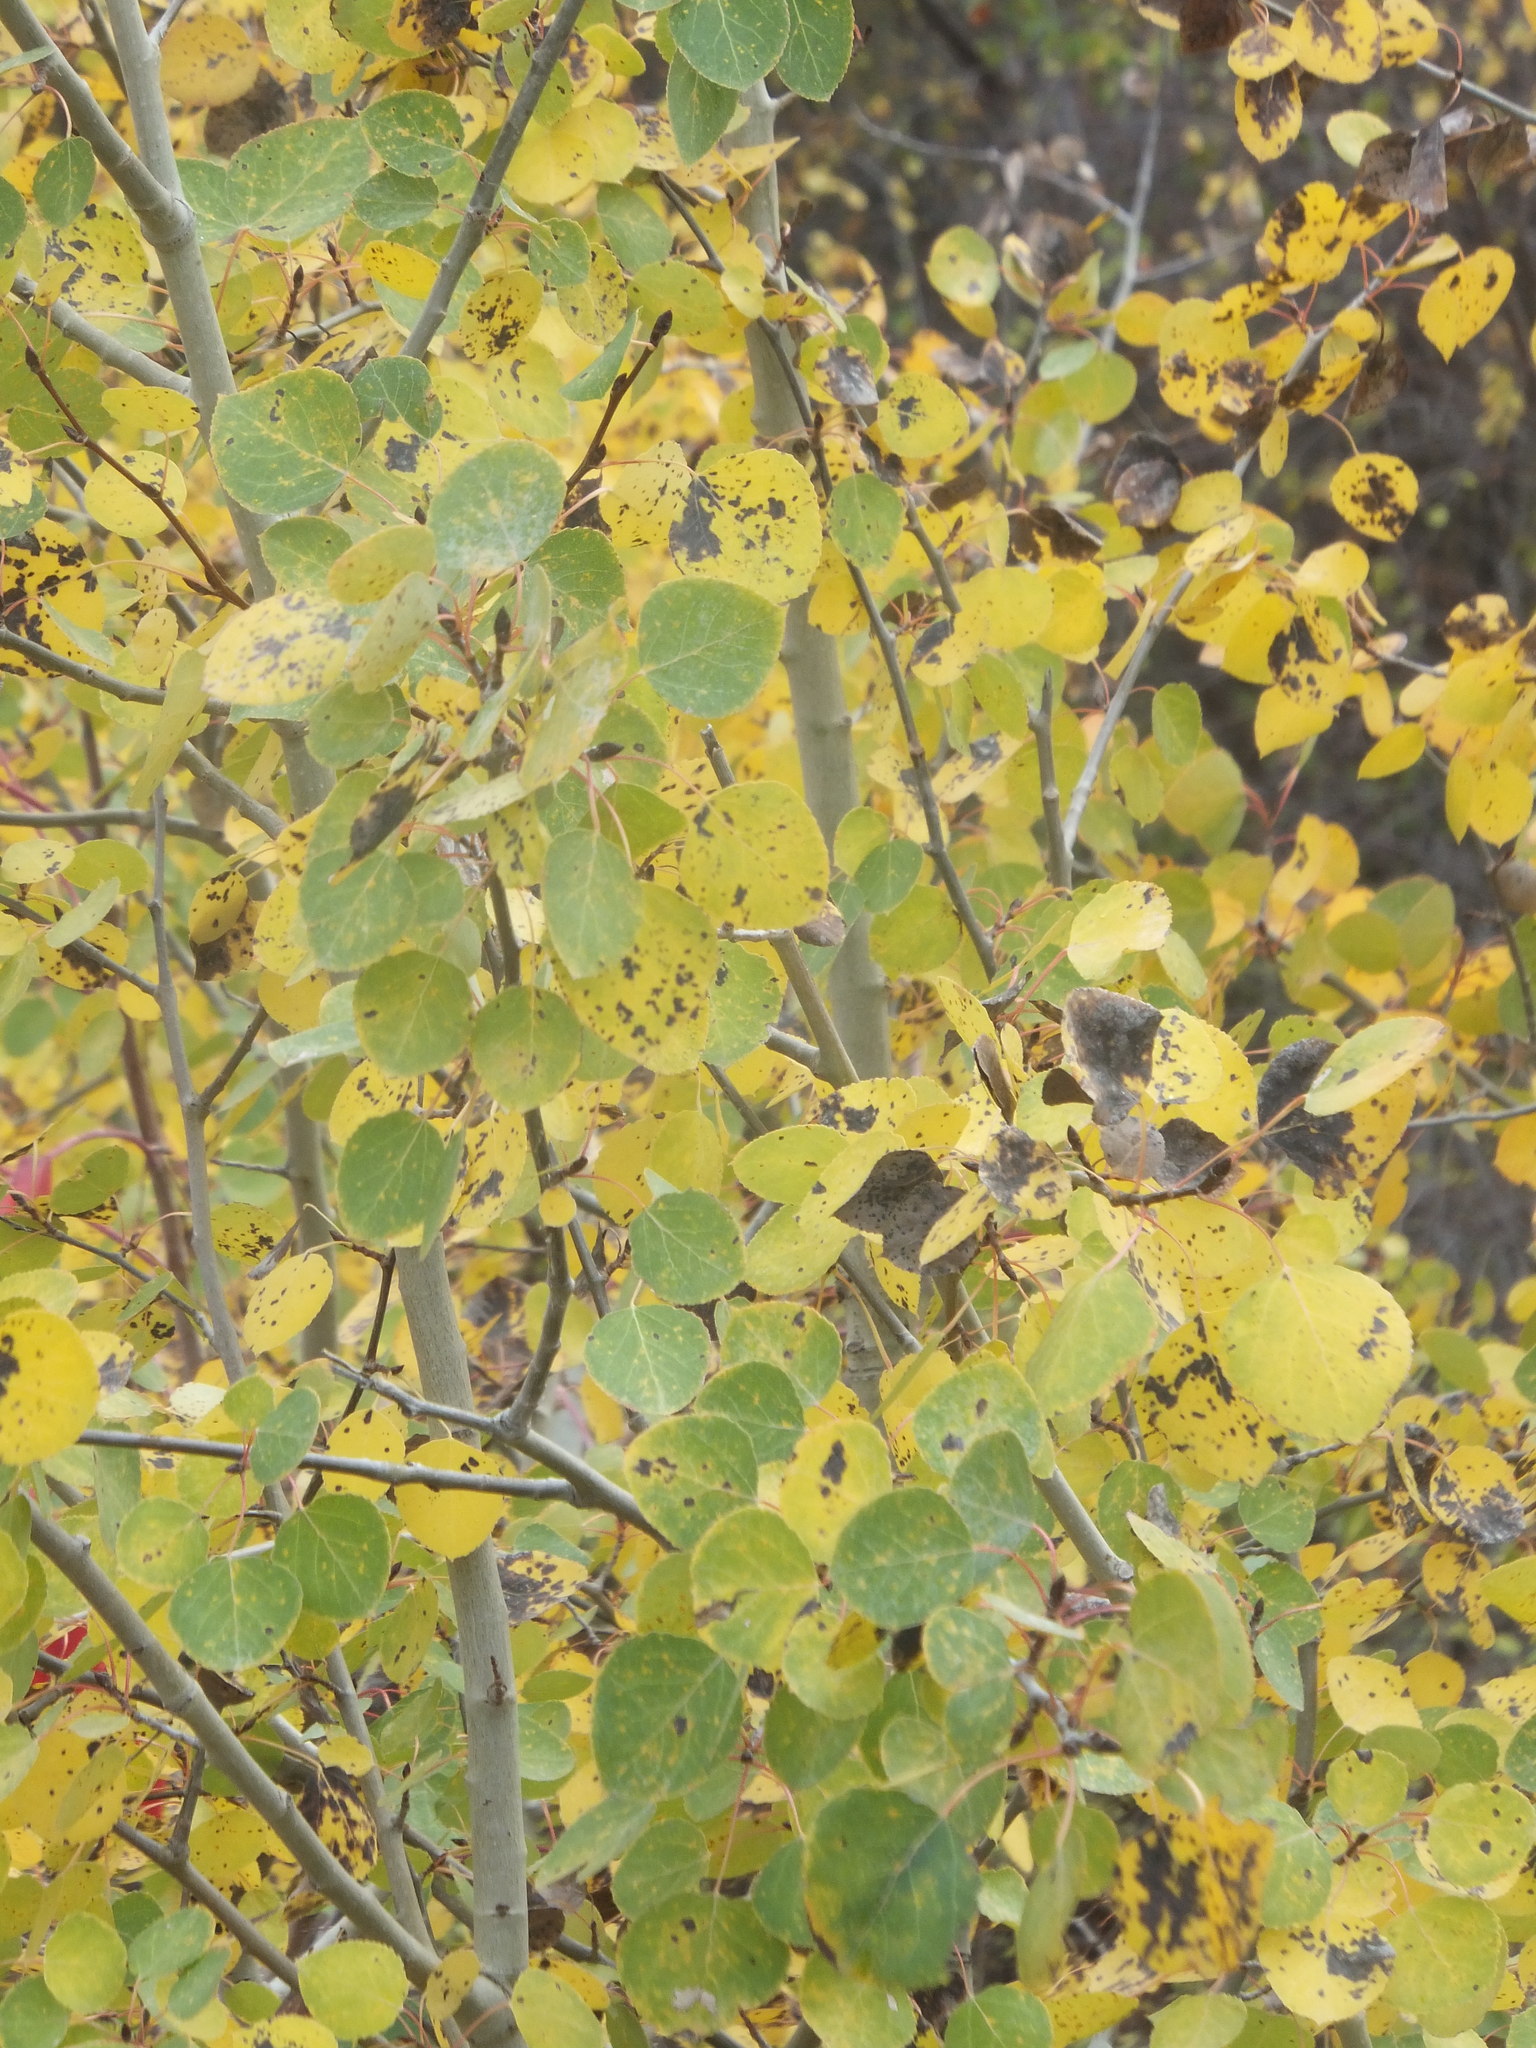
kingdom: Plantae
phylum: Tracheophyta
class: Magnoliopsida
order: Malpighiales
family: Salicaceae
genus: Populus
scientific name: Populus tremuloides
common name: Quaking aspen
